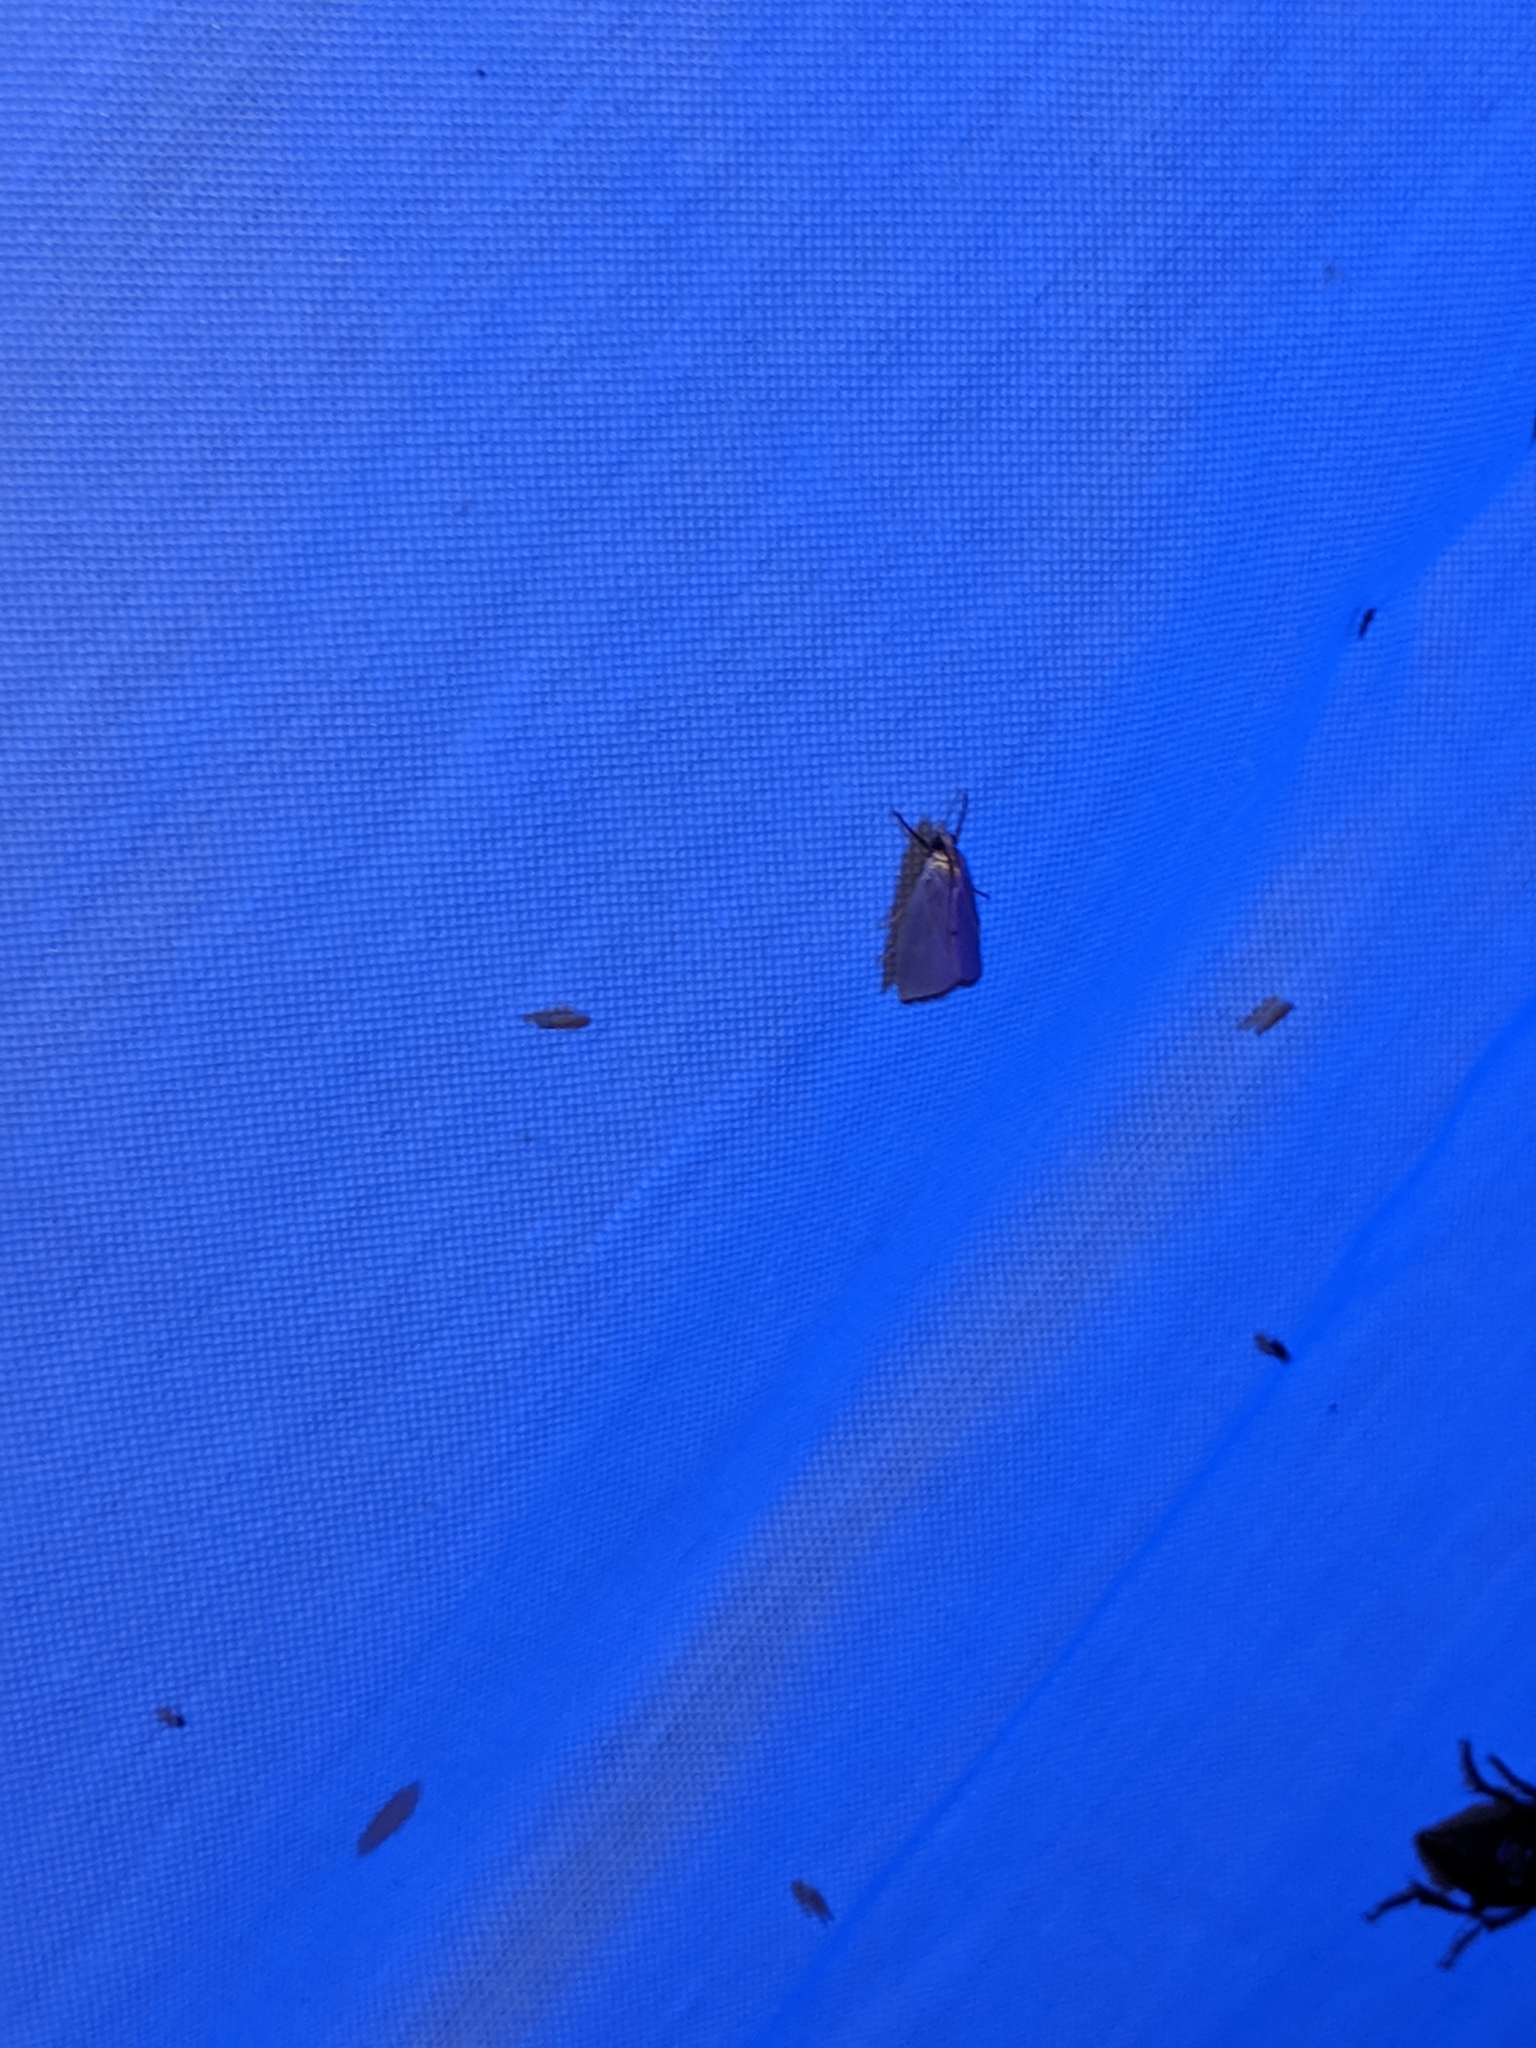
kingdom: Animalia
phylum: Arthropoda
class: Insecta
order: Lepidoptera
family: Crambidae
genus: Argyria
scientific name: Argyria nivalis
